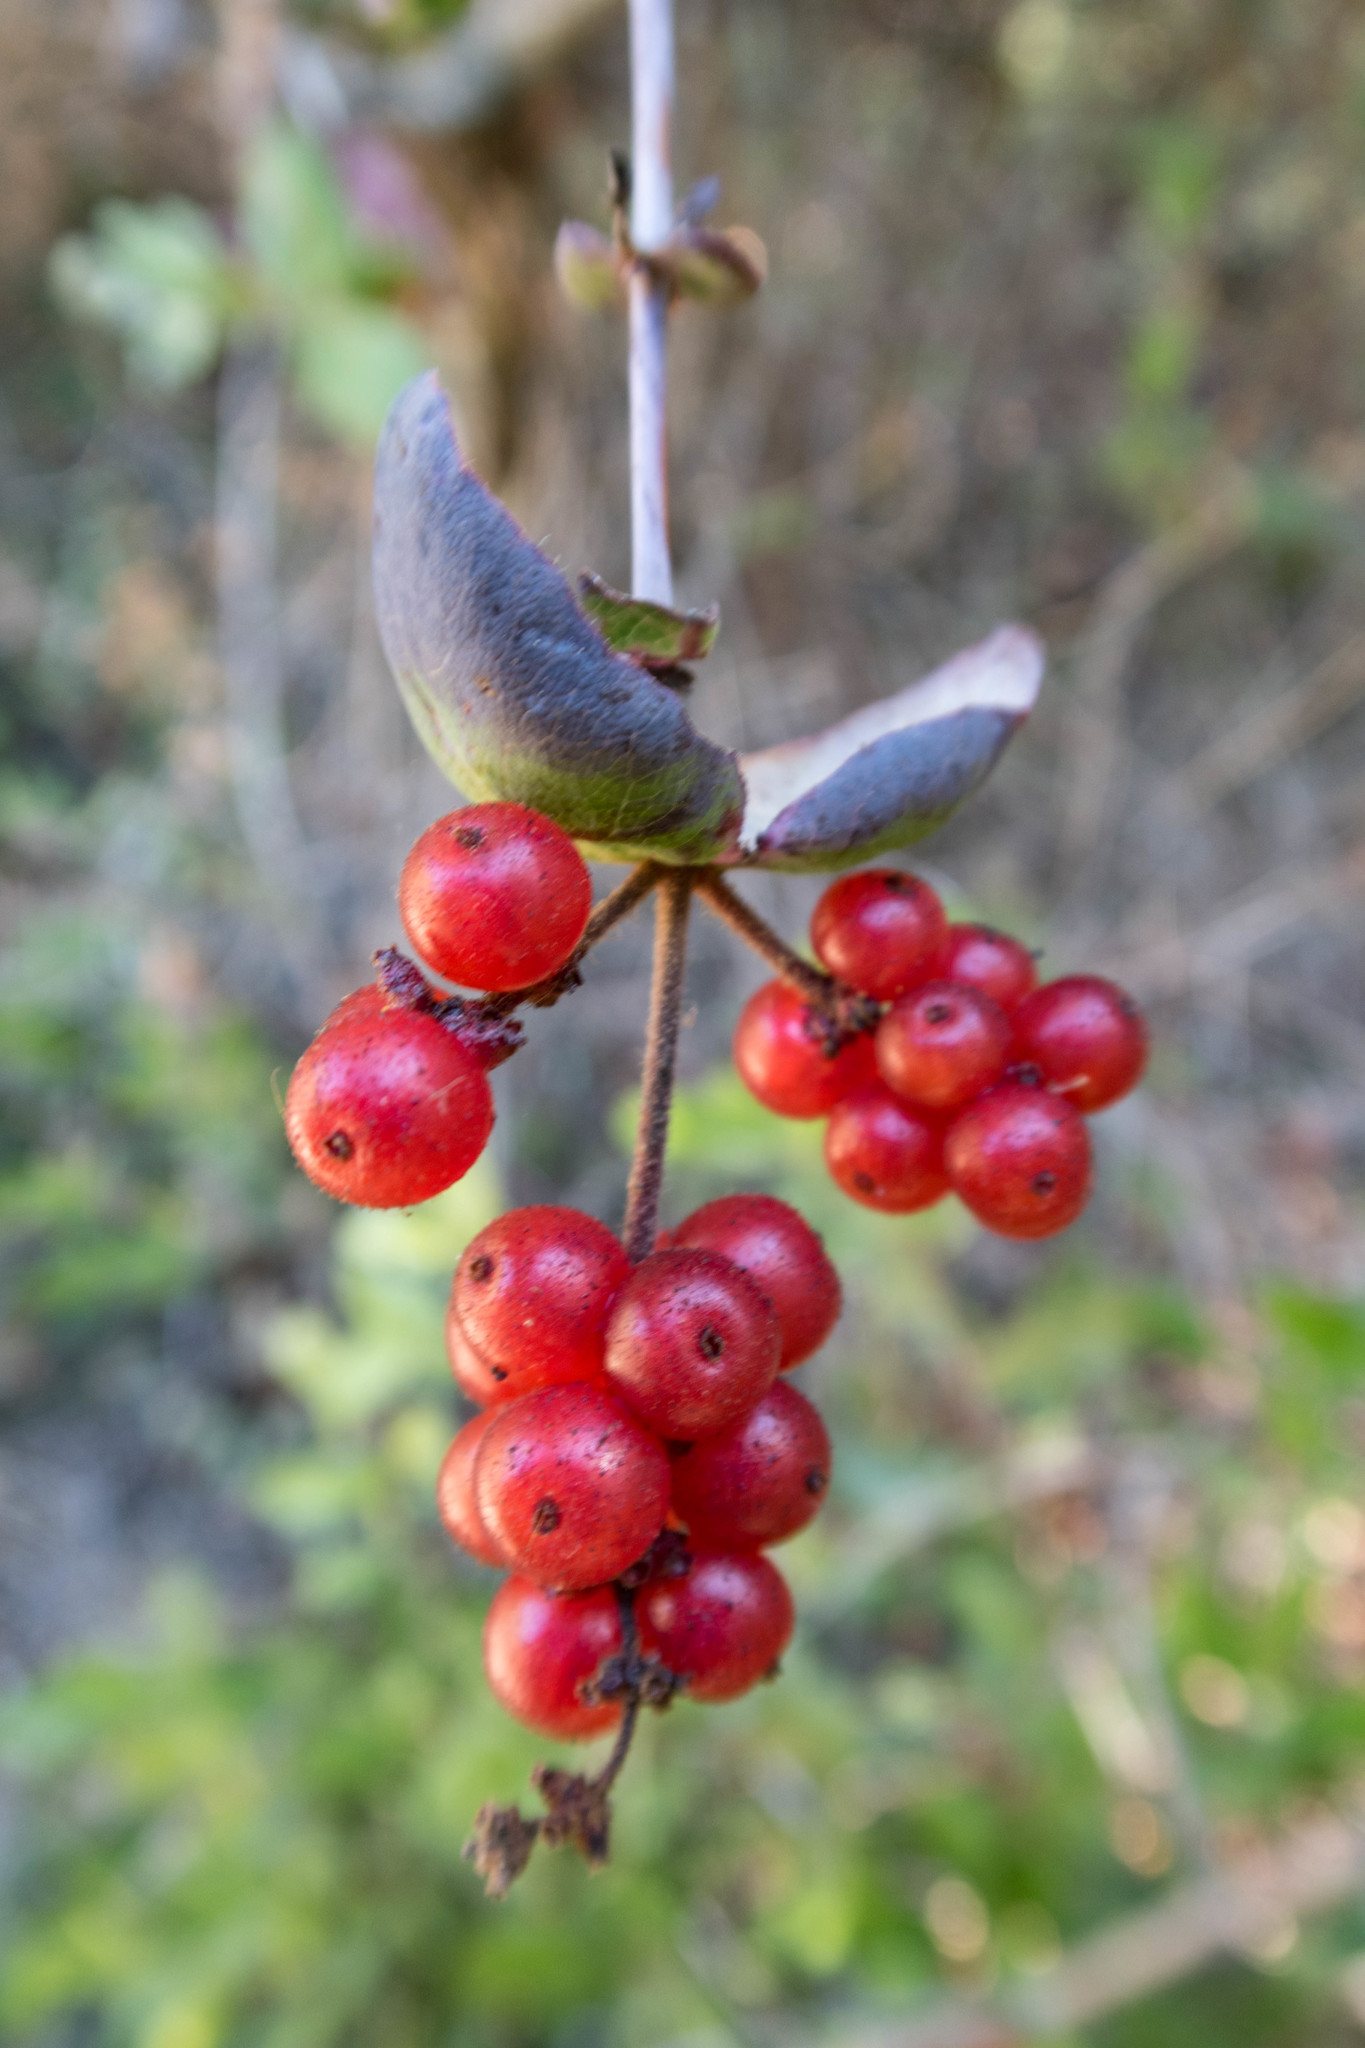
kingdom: Plantae
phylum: Tracheophyta
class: Magnoliopsida
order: Dipsacales
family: Caprifoliaceae
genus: Lonicera
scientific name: Lonicera hispidula
